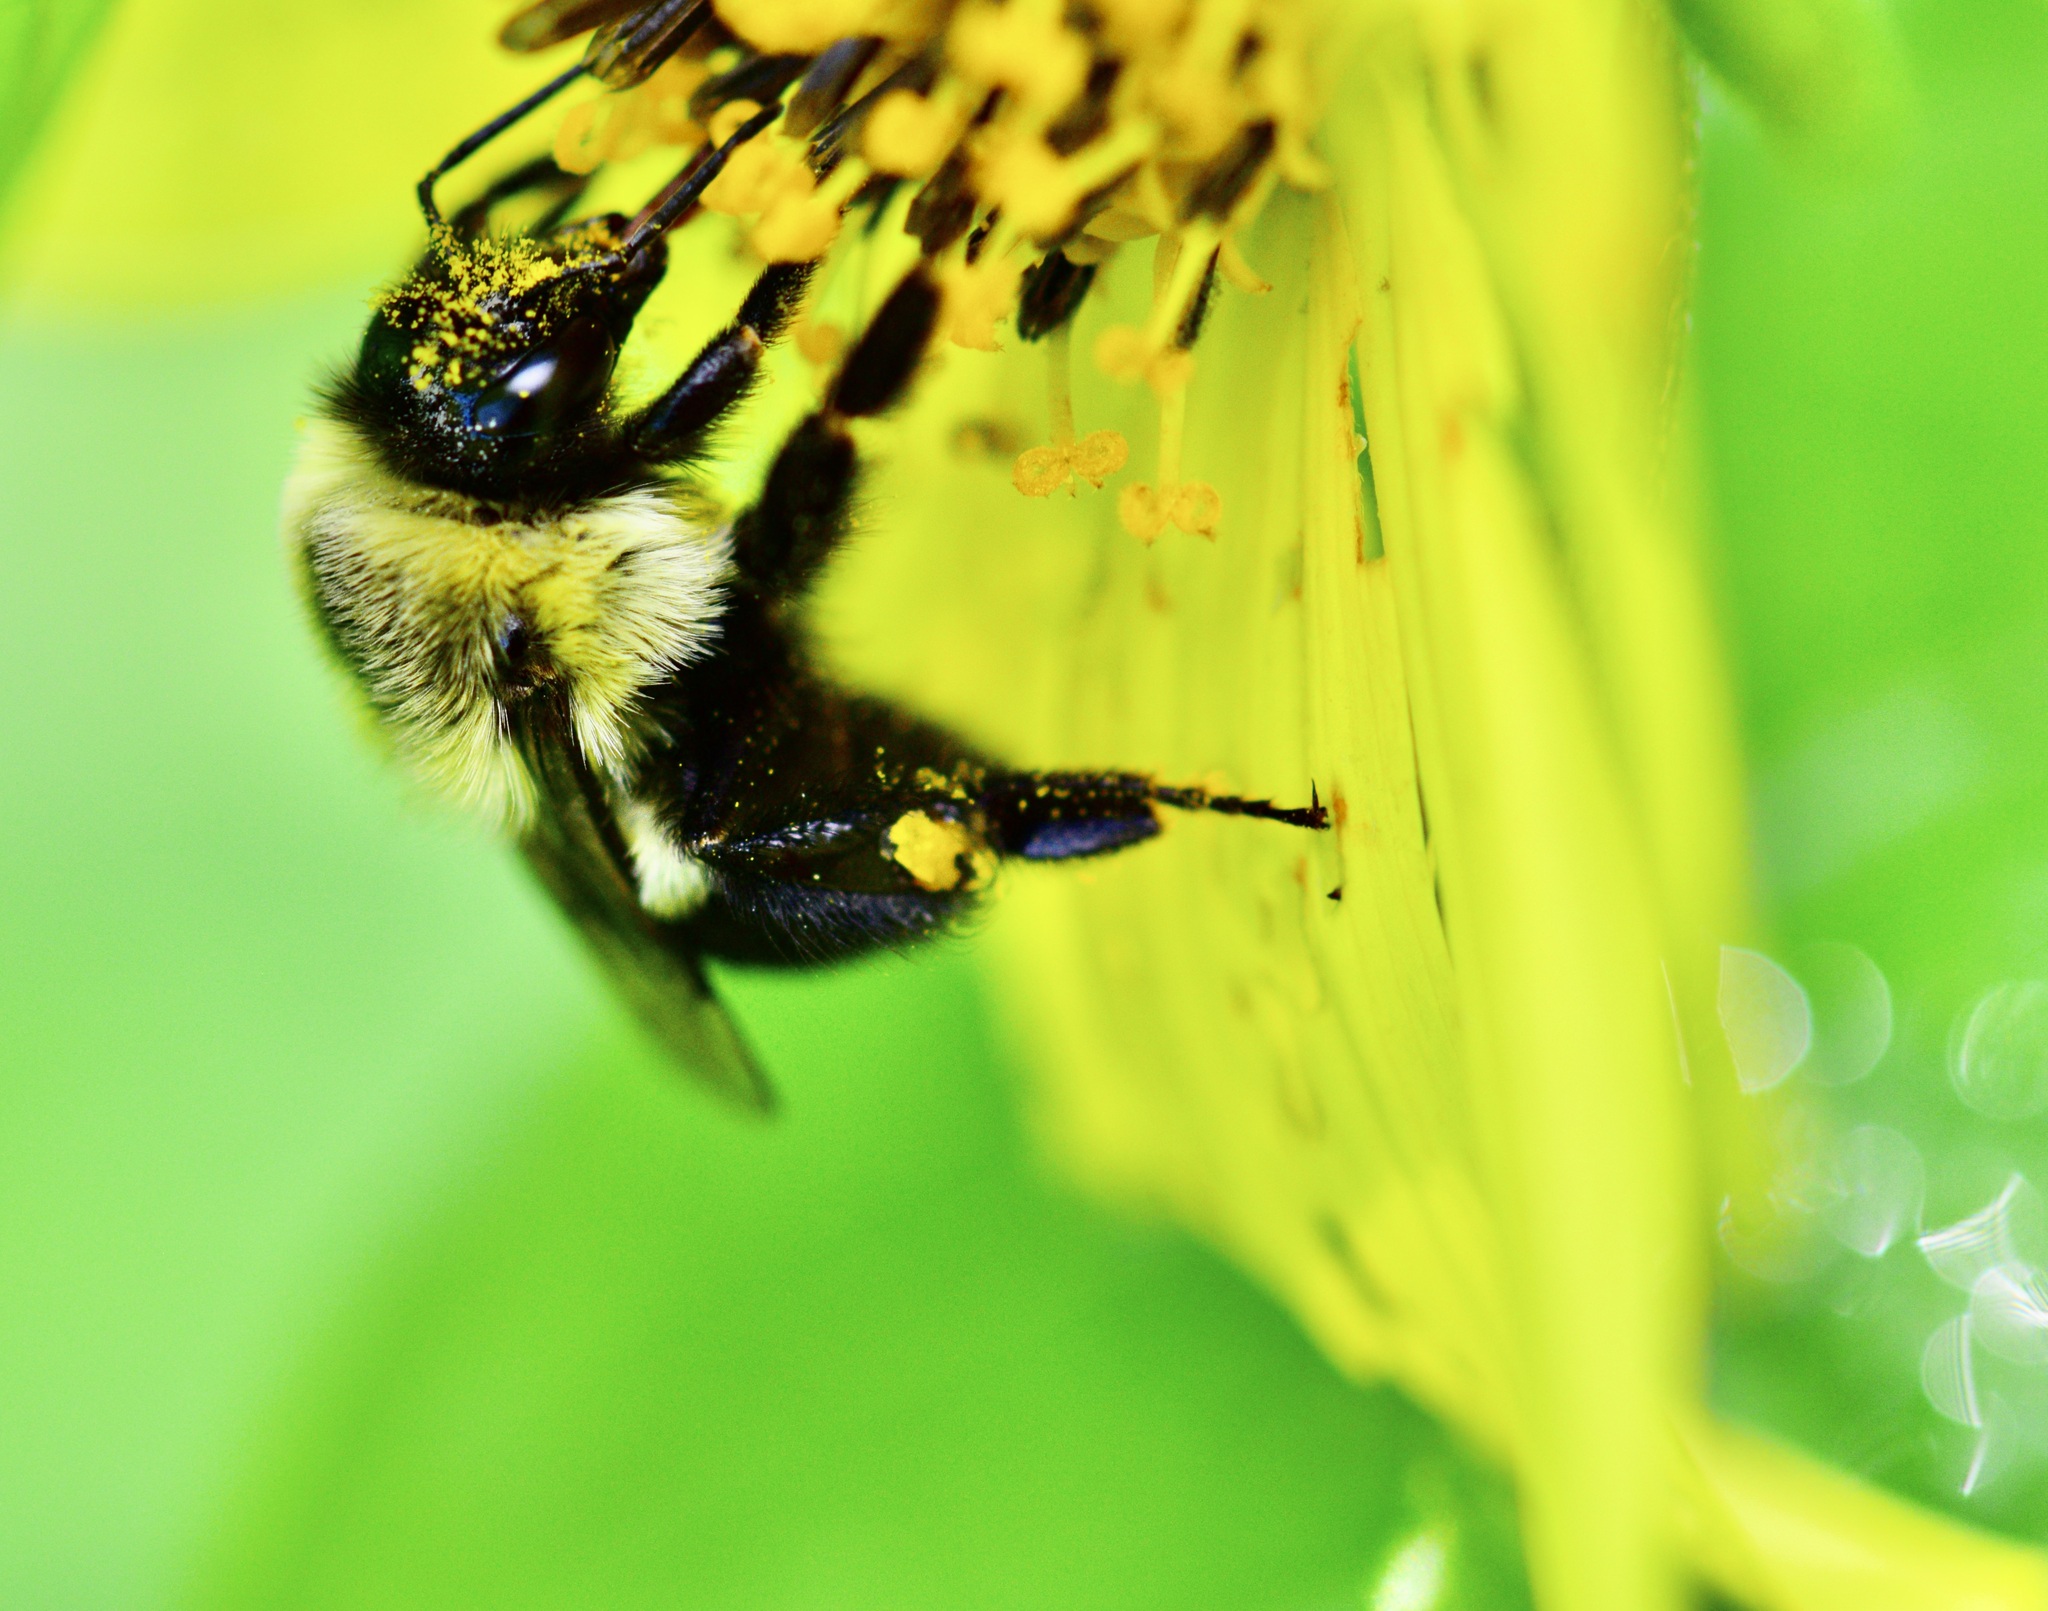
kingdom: Animalia
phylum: Arthropoda
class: Insecta
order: Hymenoptera
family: Apidae
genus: Bombus
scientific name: Bombus impatiens
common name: Common eastern bumble bee
